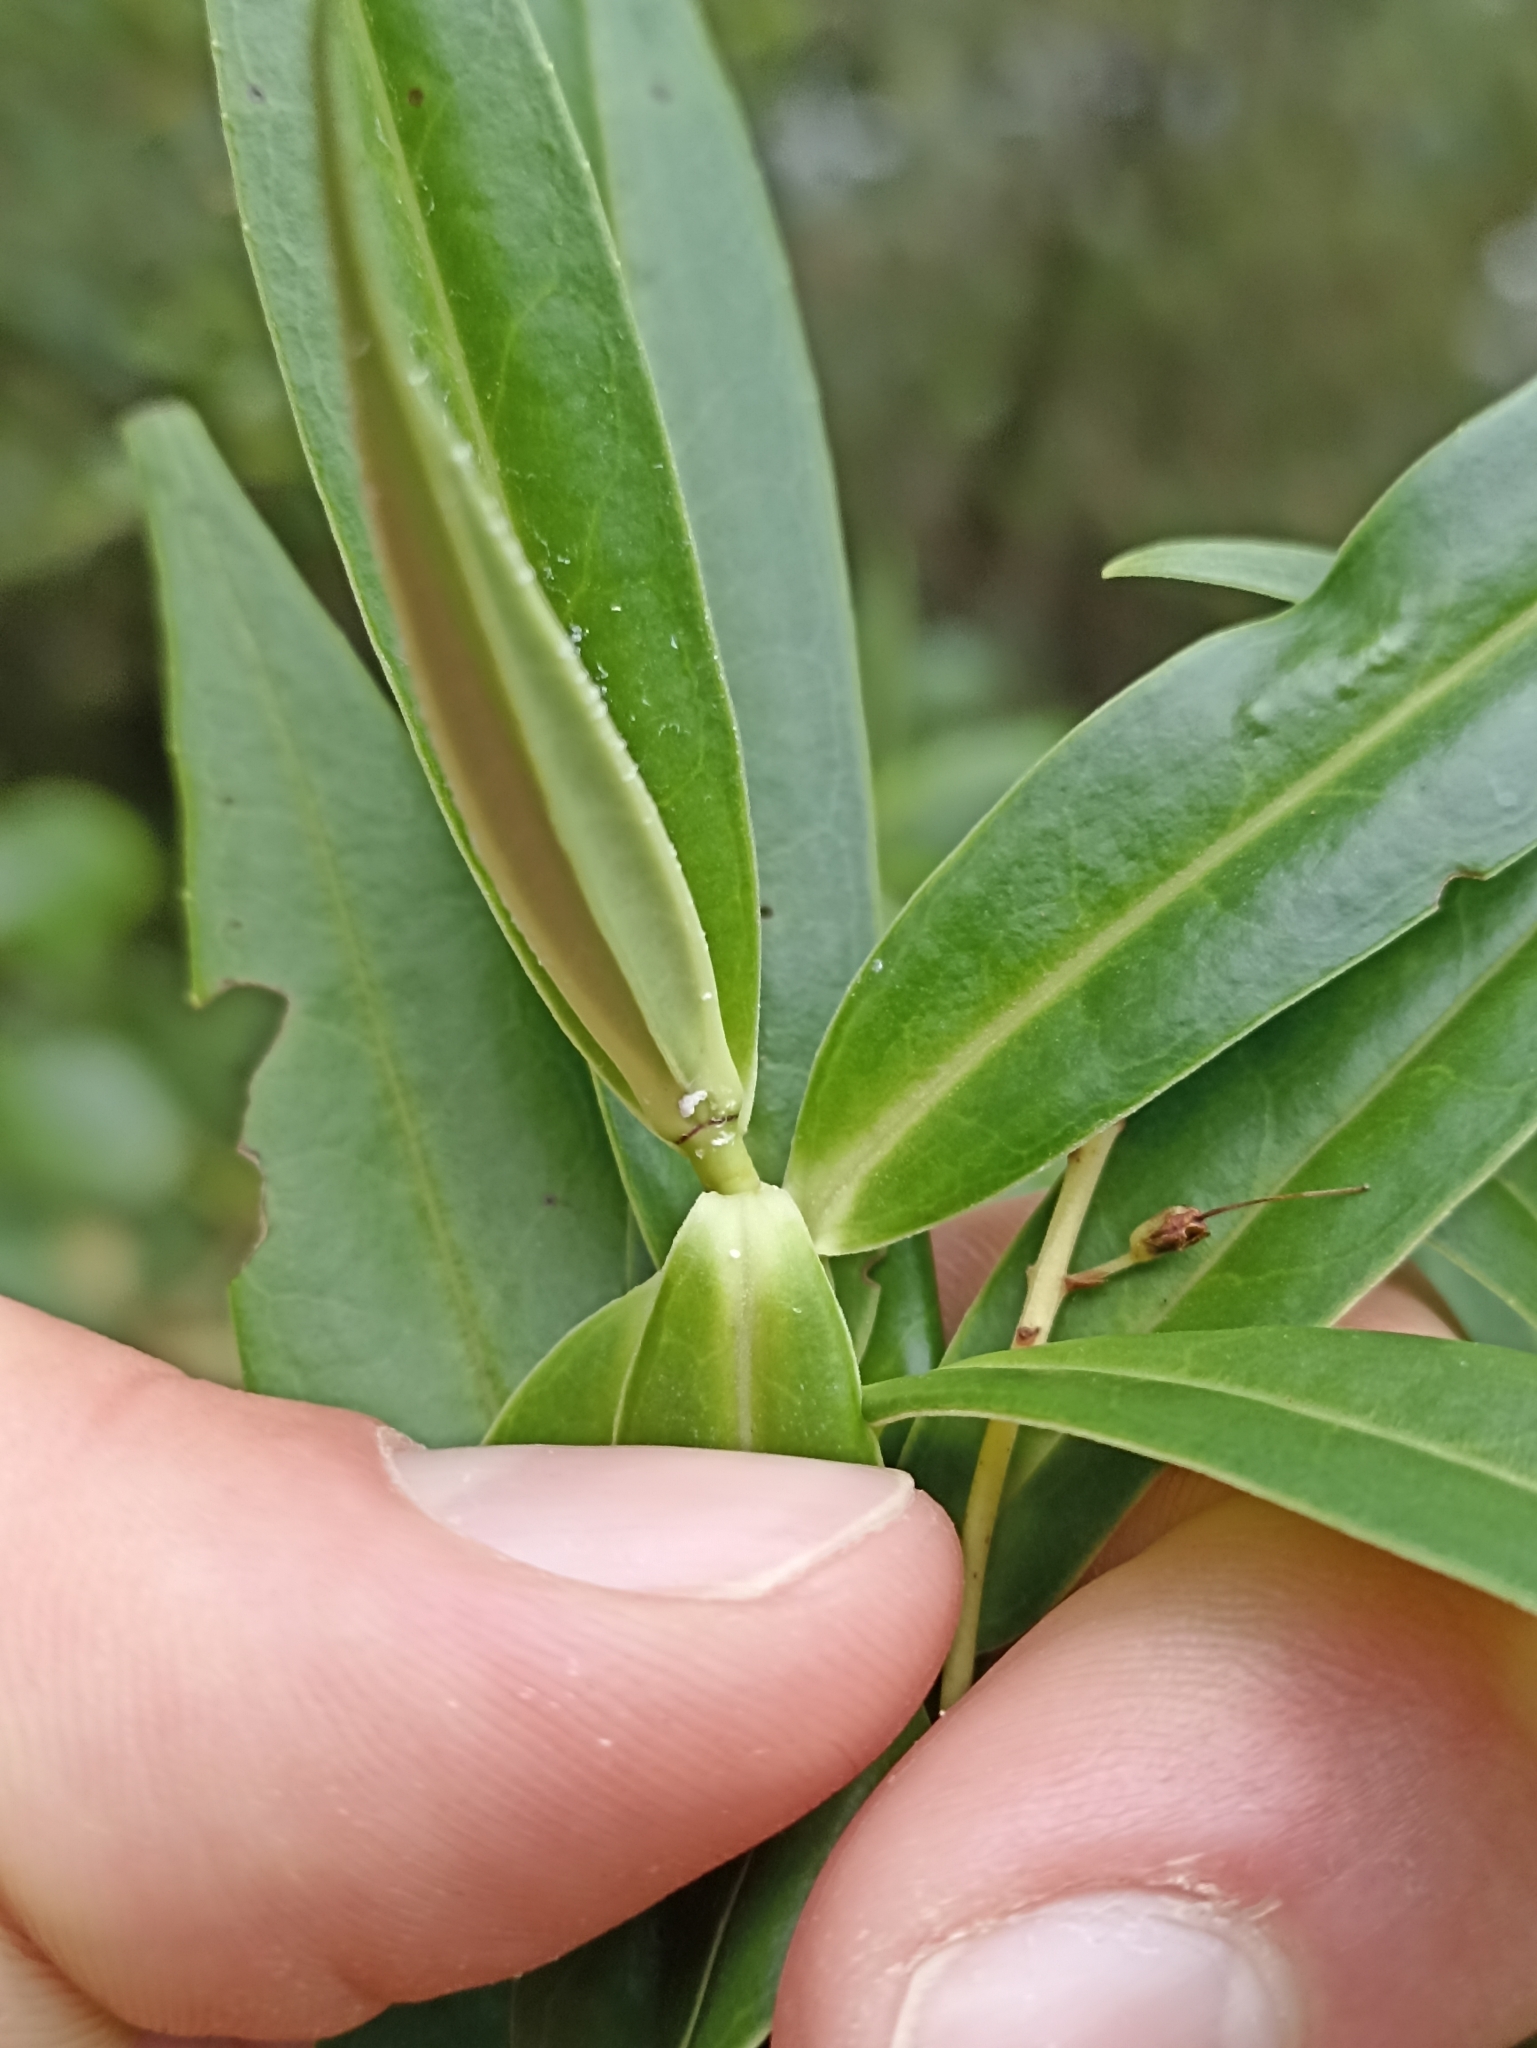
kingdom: Plantae
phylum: Tracheophyta
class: Magnoliopsida
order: Lamiales
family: Plantaginaceae
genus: Veronica
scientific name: Veronica salicifolia
